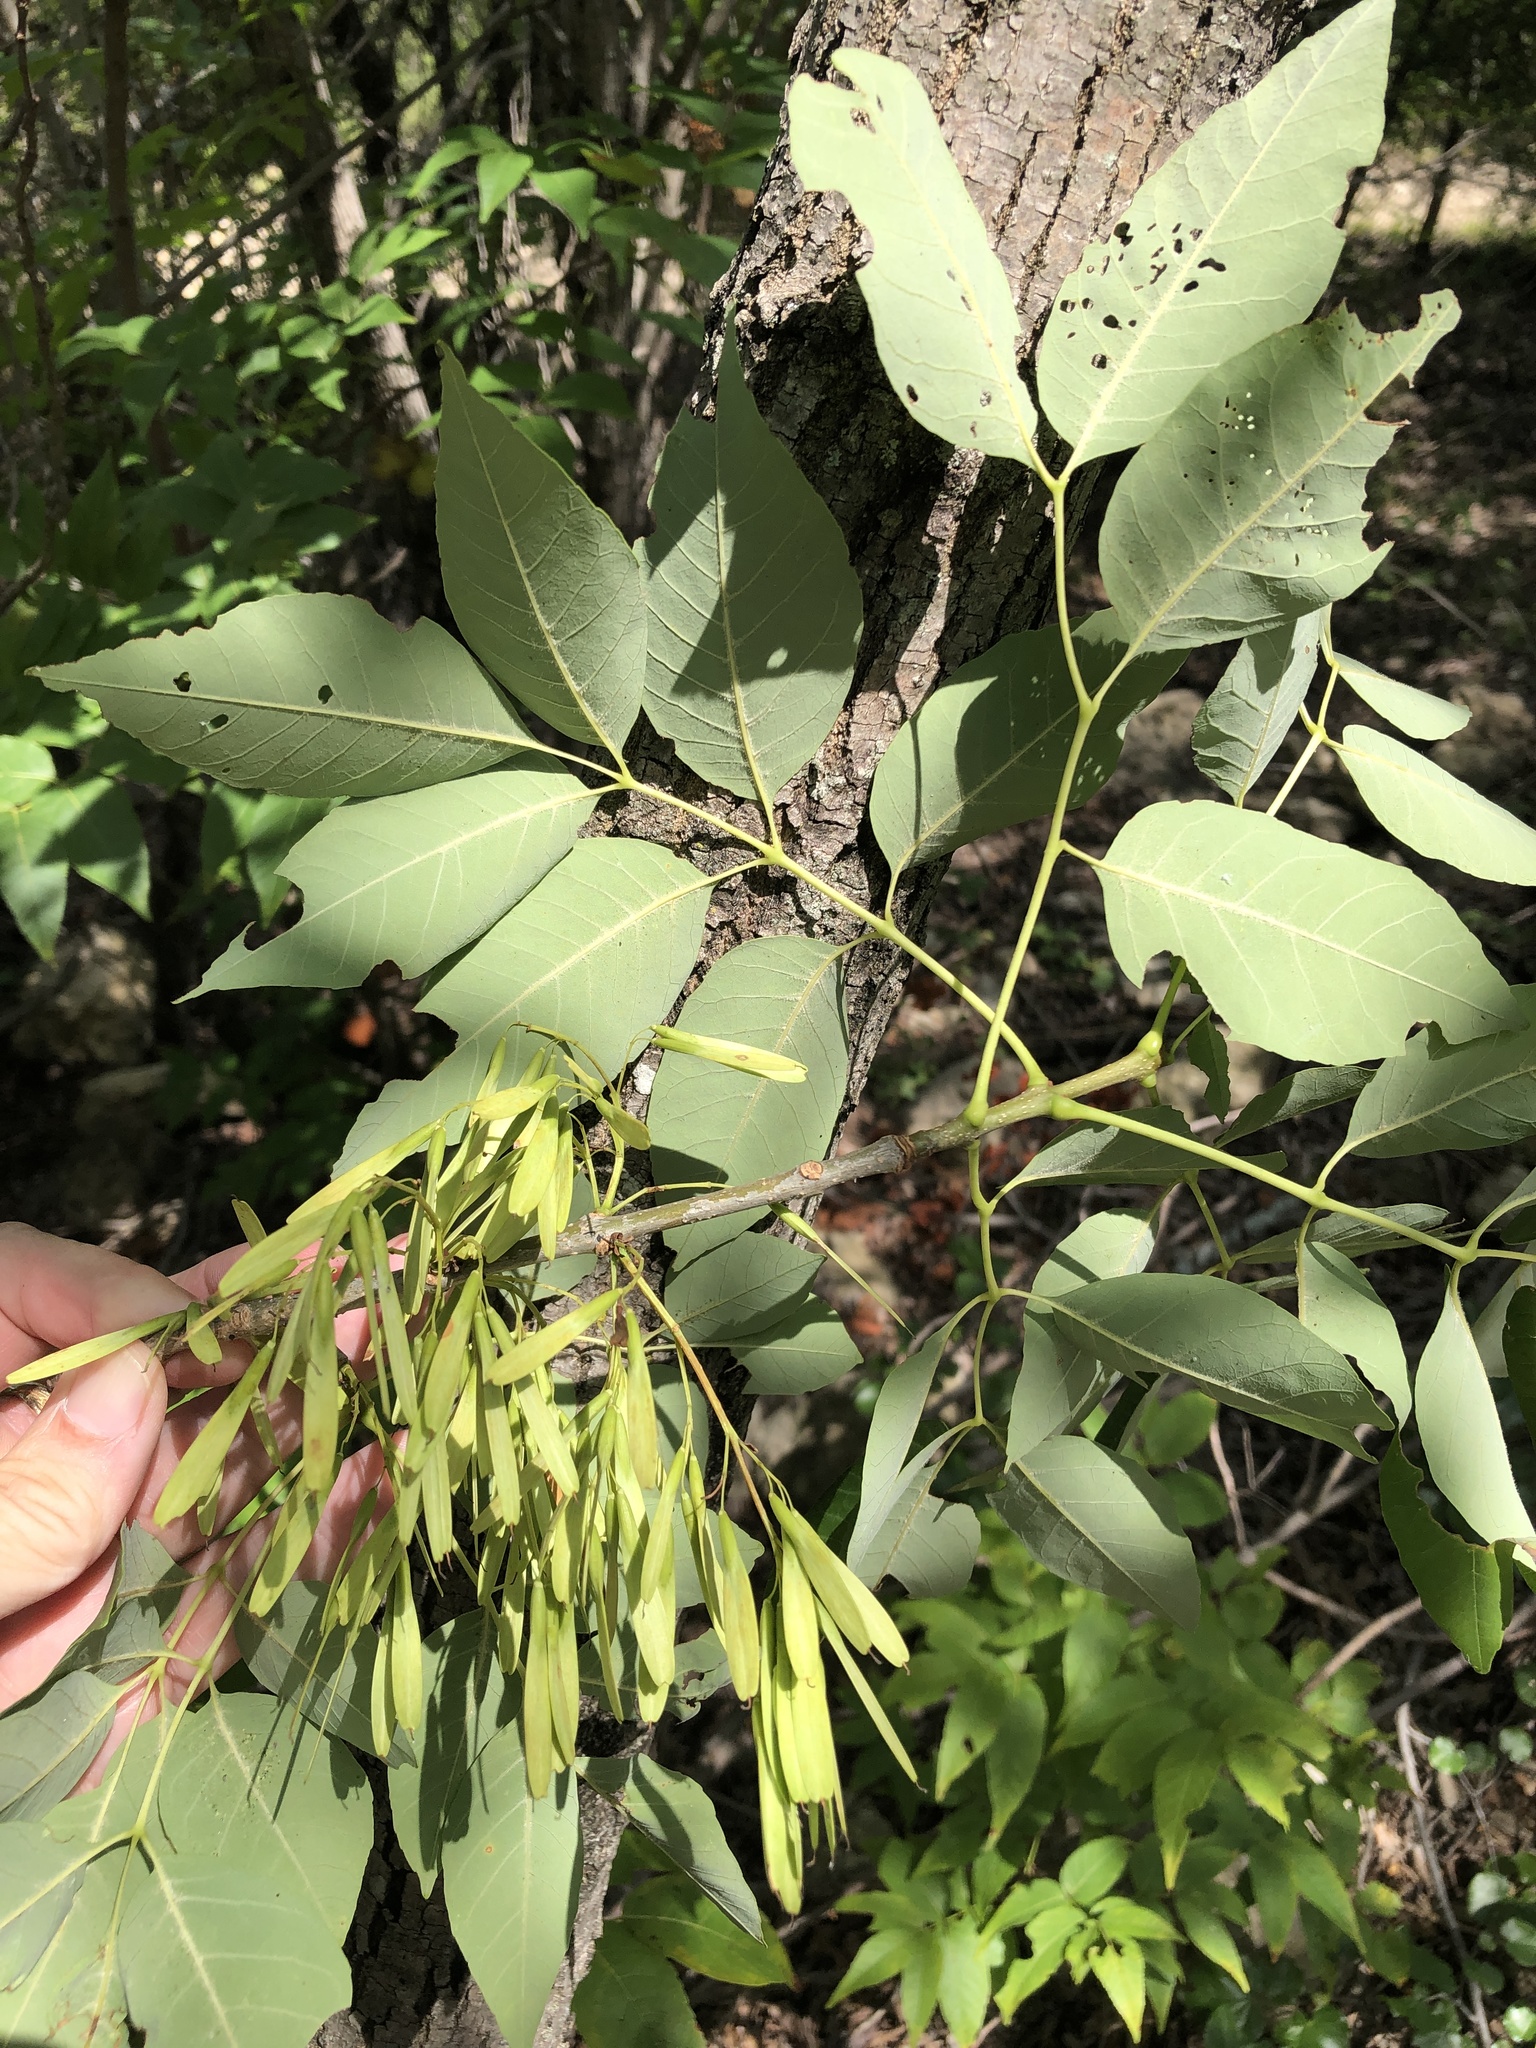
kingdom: Plantae
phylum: Tracheophyta
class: Magnoliopsida
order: Lamiales
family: Oleaceae
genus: Fraxinus
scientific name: Fraxinus albicans
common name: Texas ash
